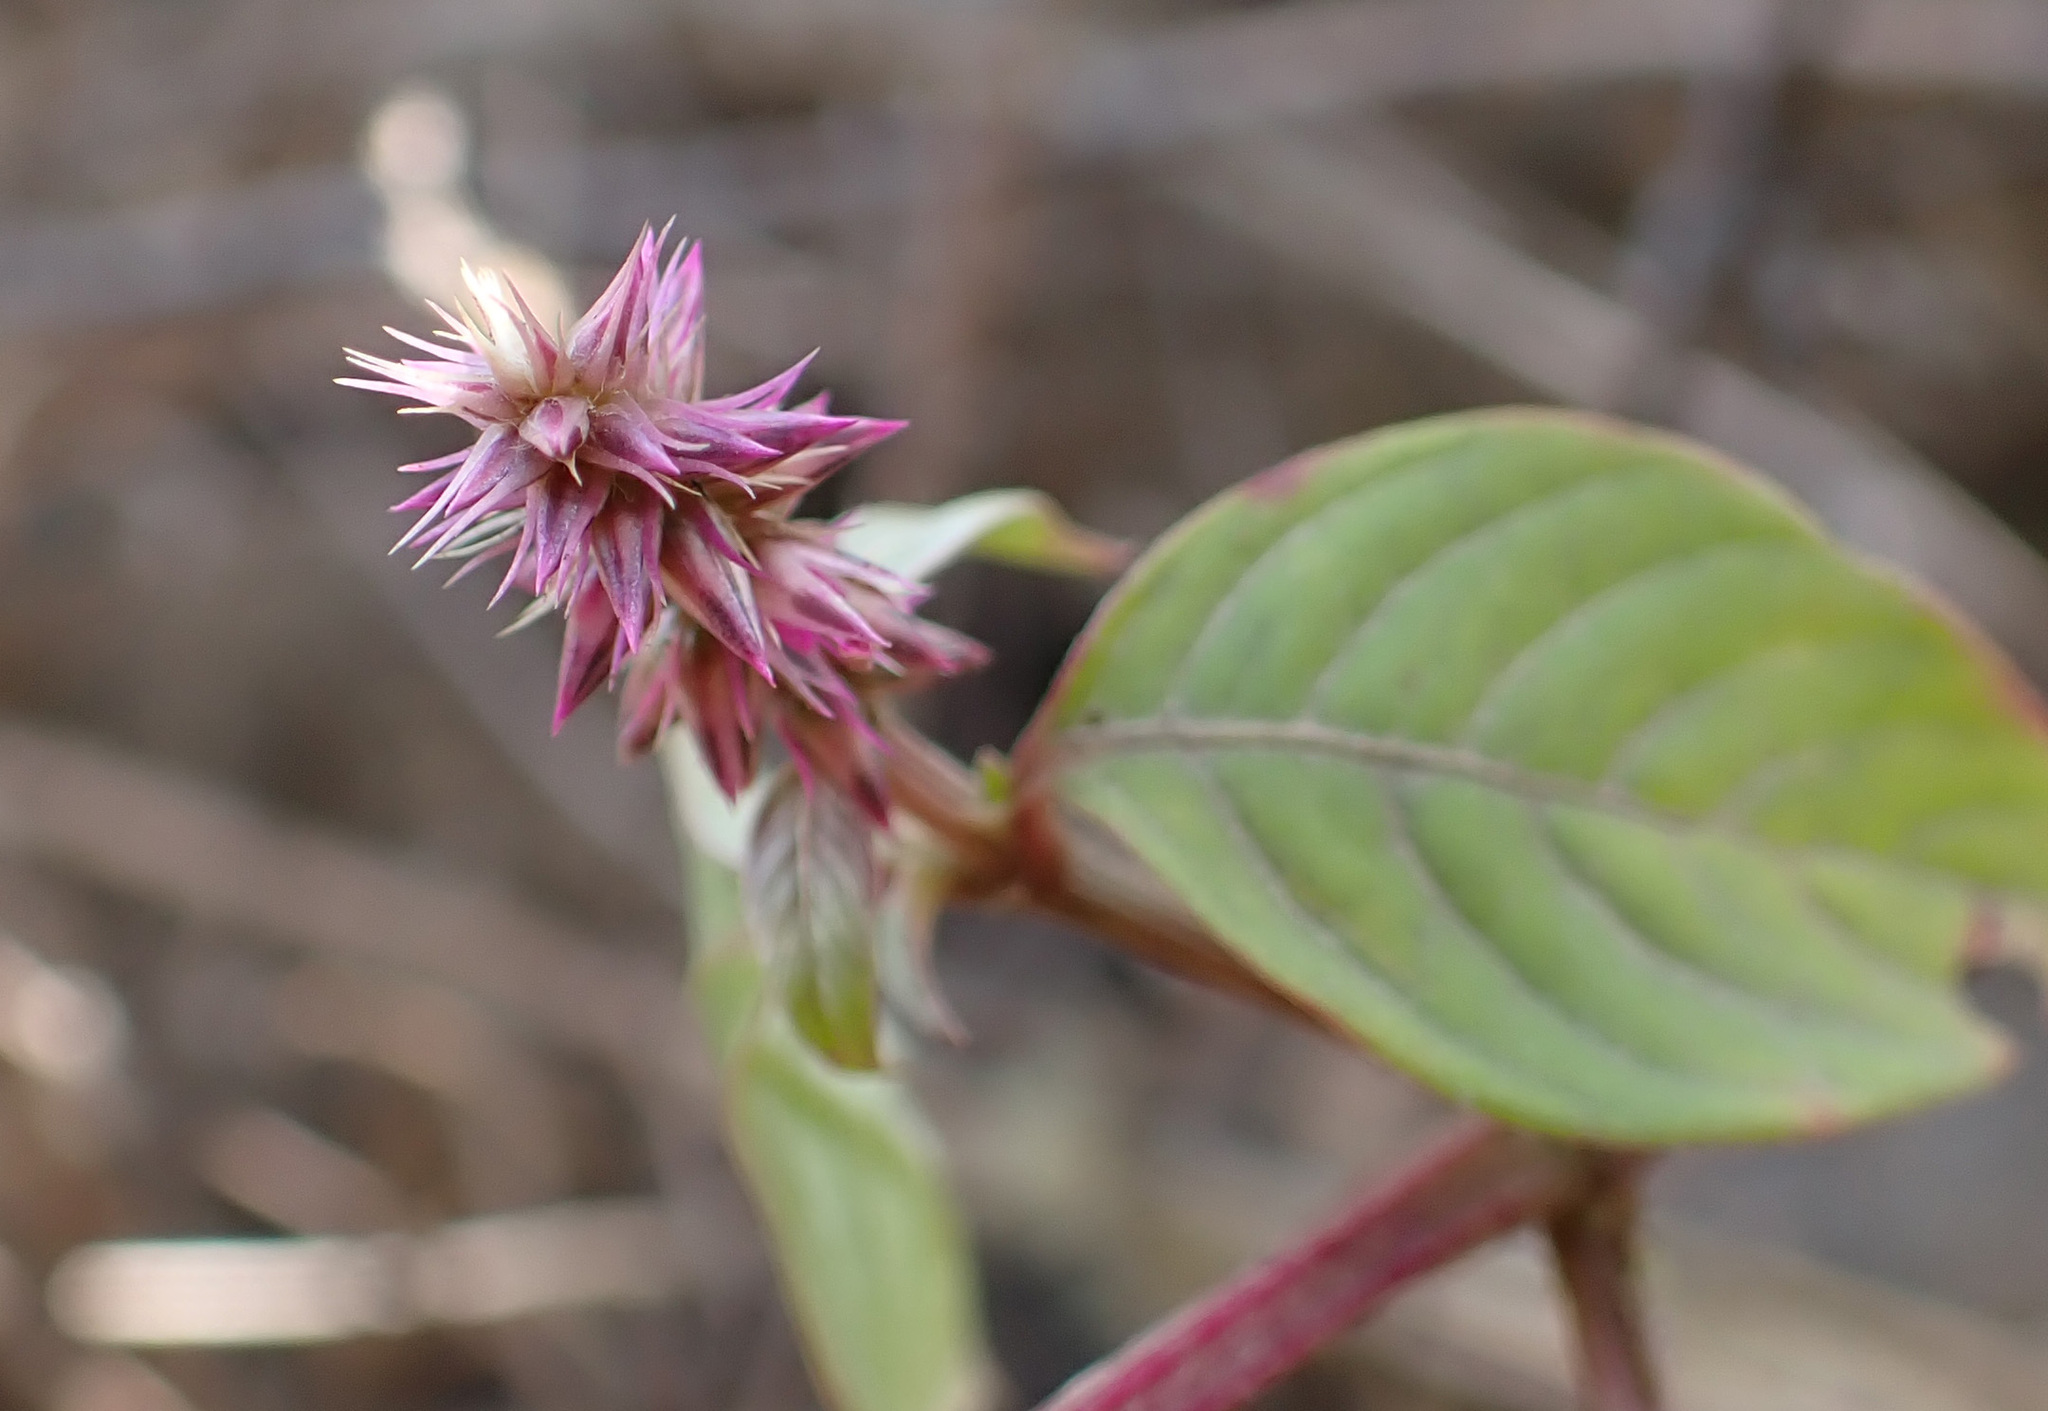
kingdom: Plantae
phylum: Tracheophyta
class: Magnoliopsida
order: Caryophyllales
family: Amaranthaceae
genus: Achyranthes
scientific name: Achyranthes aspera
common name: Devil's horsewhip
